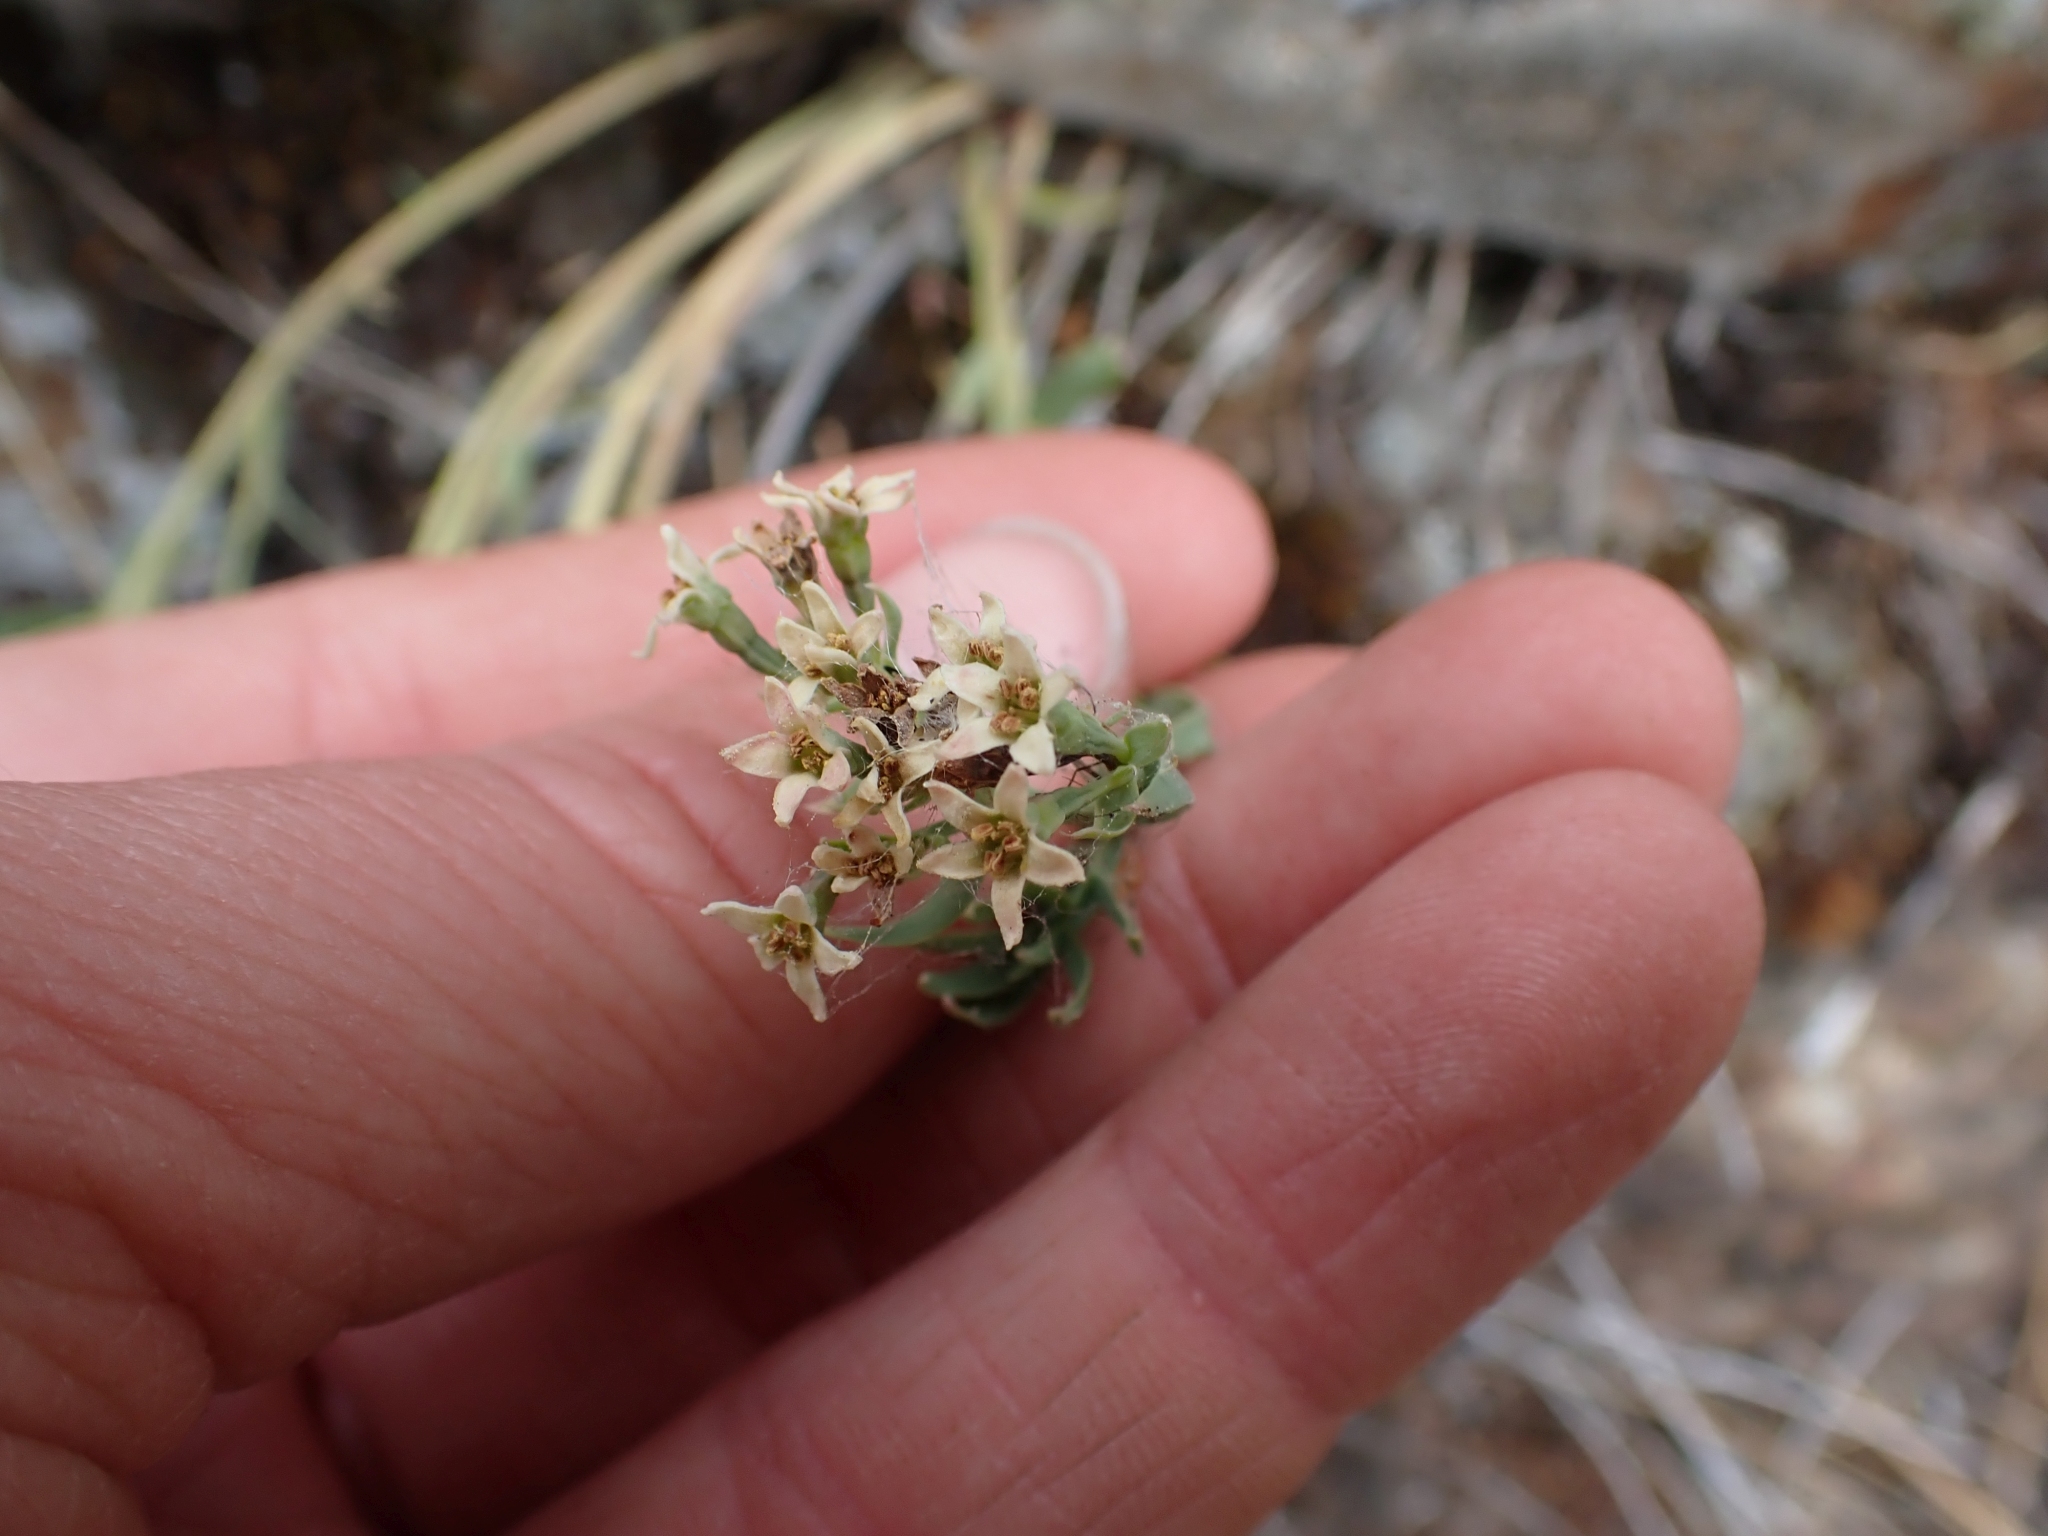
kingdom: Plantae
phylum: Tracheophyta
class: Magnoliopsida
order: Santalales
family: Comandraceae
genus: Comandra
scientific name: Comandra umbellata
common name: Bastard toadflax
